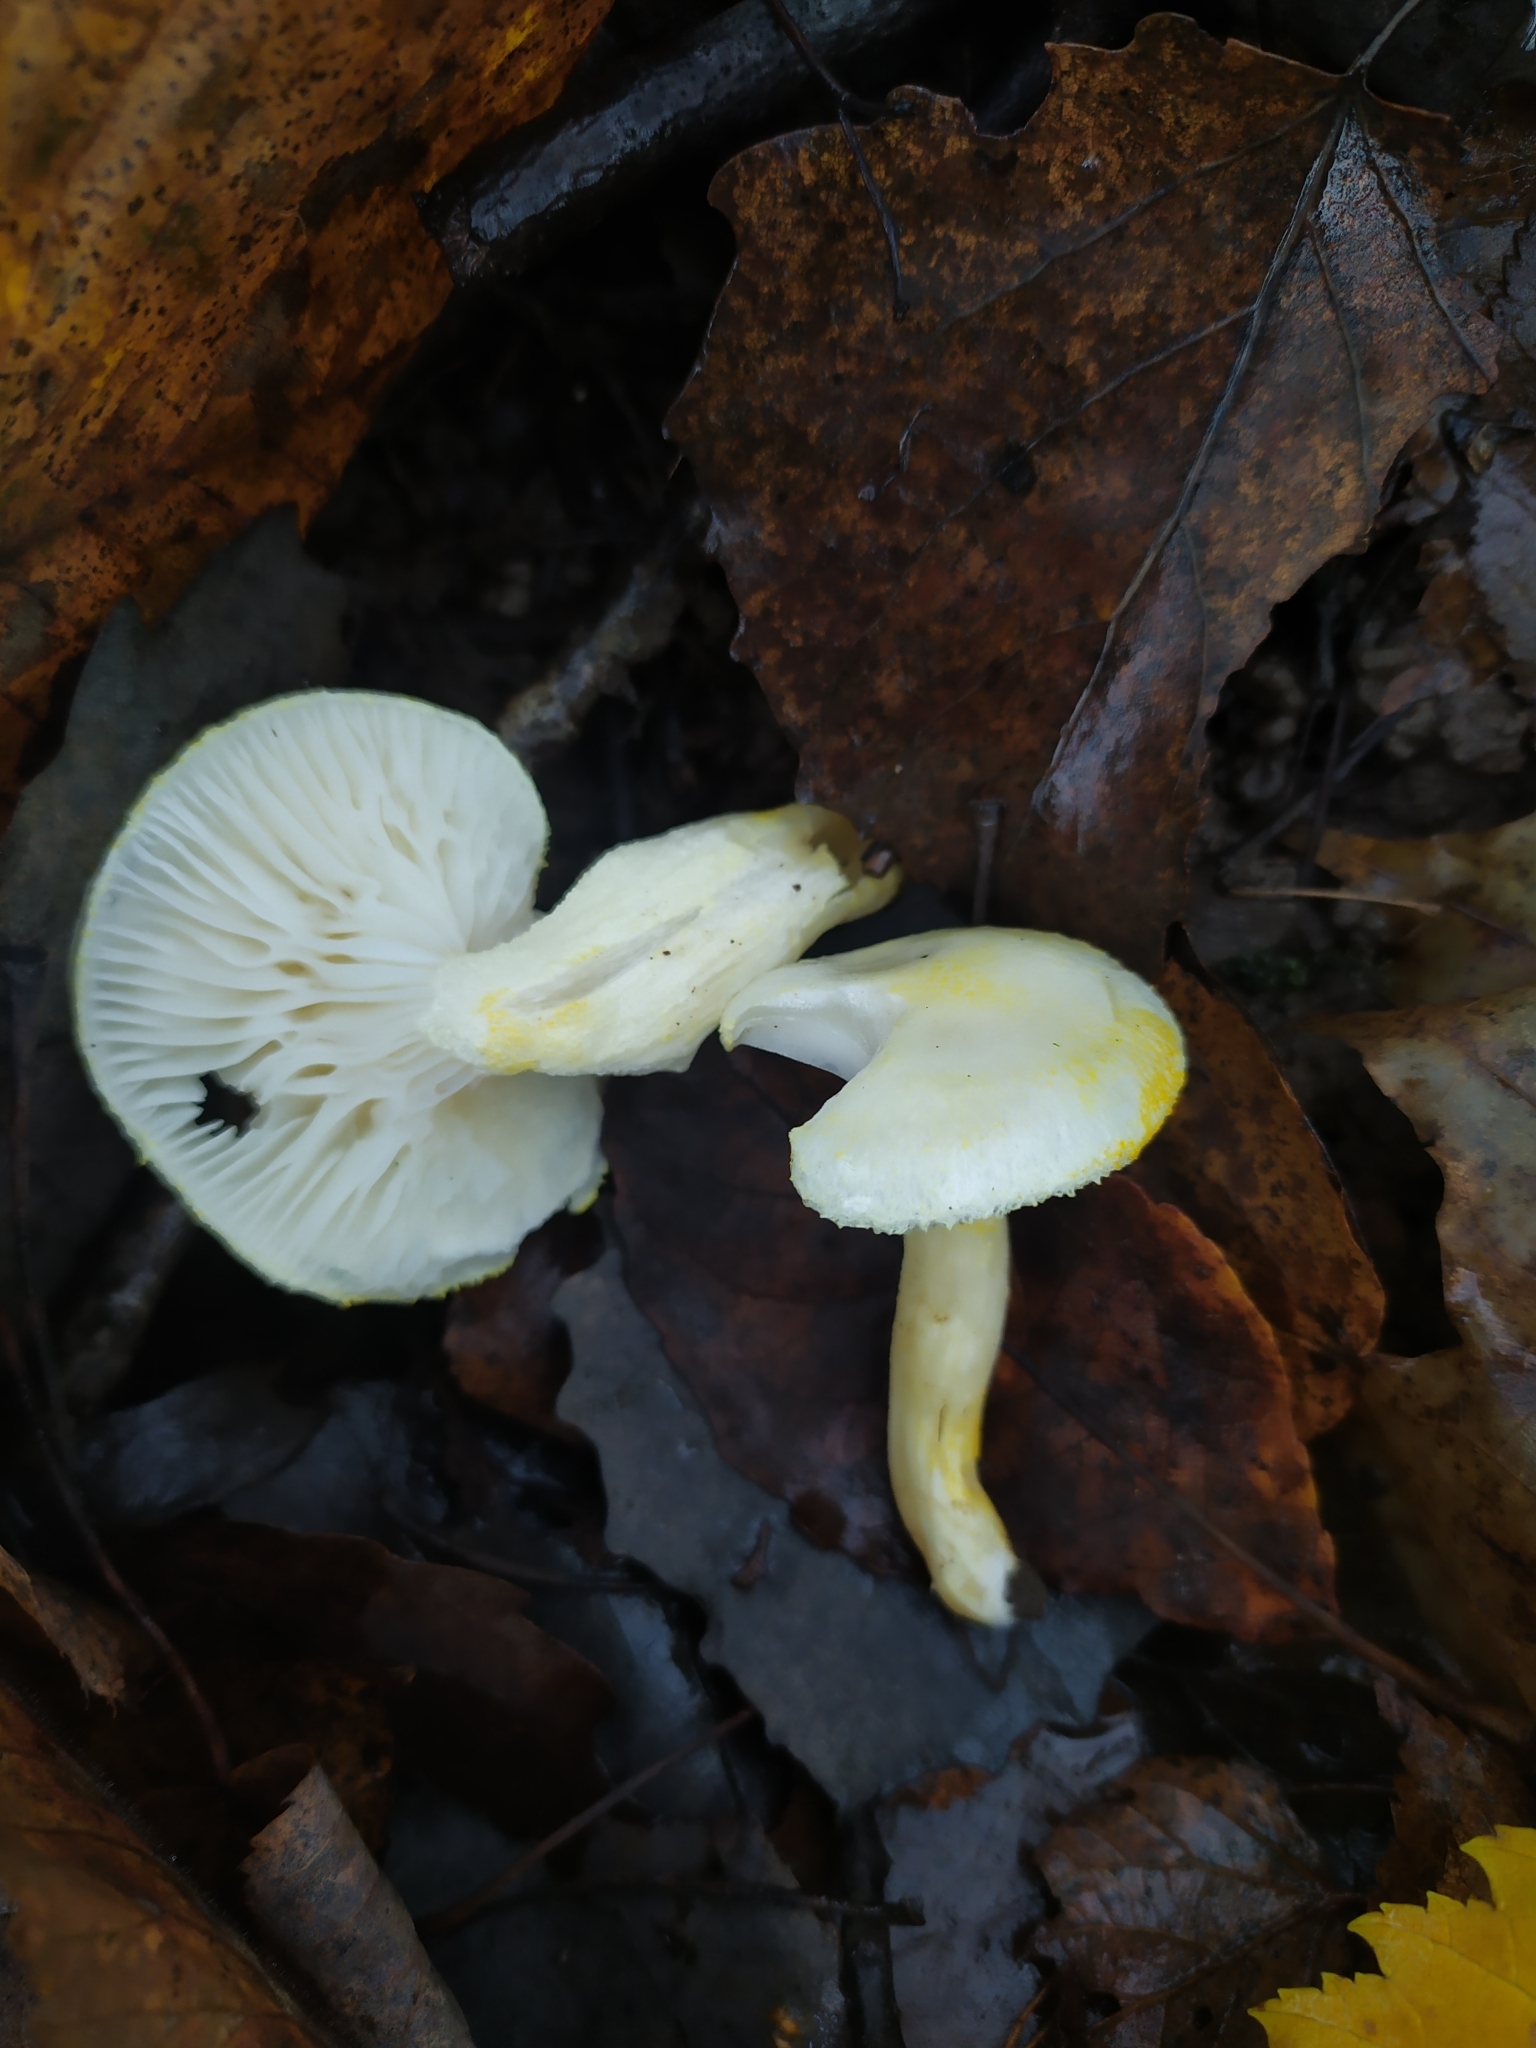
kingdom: Fungi
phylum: Basidiomycota
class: Agaricomycetes
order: Agaricales
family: Hygrophoraceae
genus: Hygrophorus
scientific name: Hygrophorus chrysodon
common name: Gold flecked woodwax
